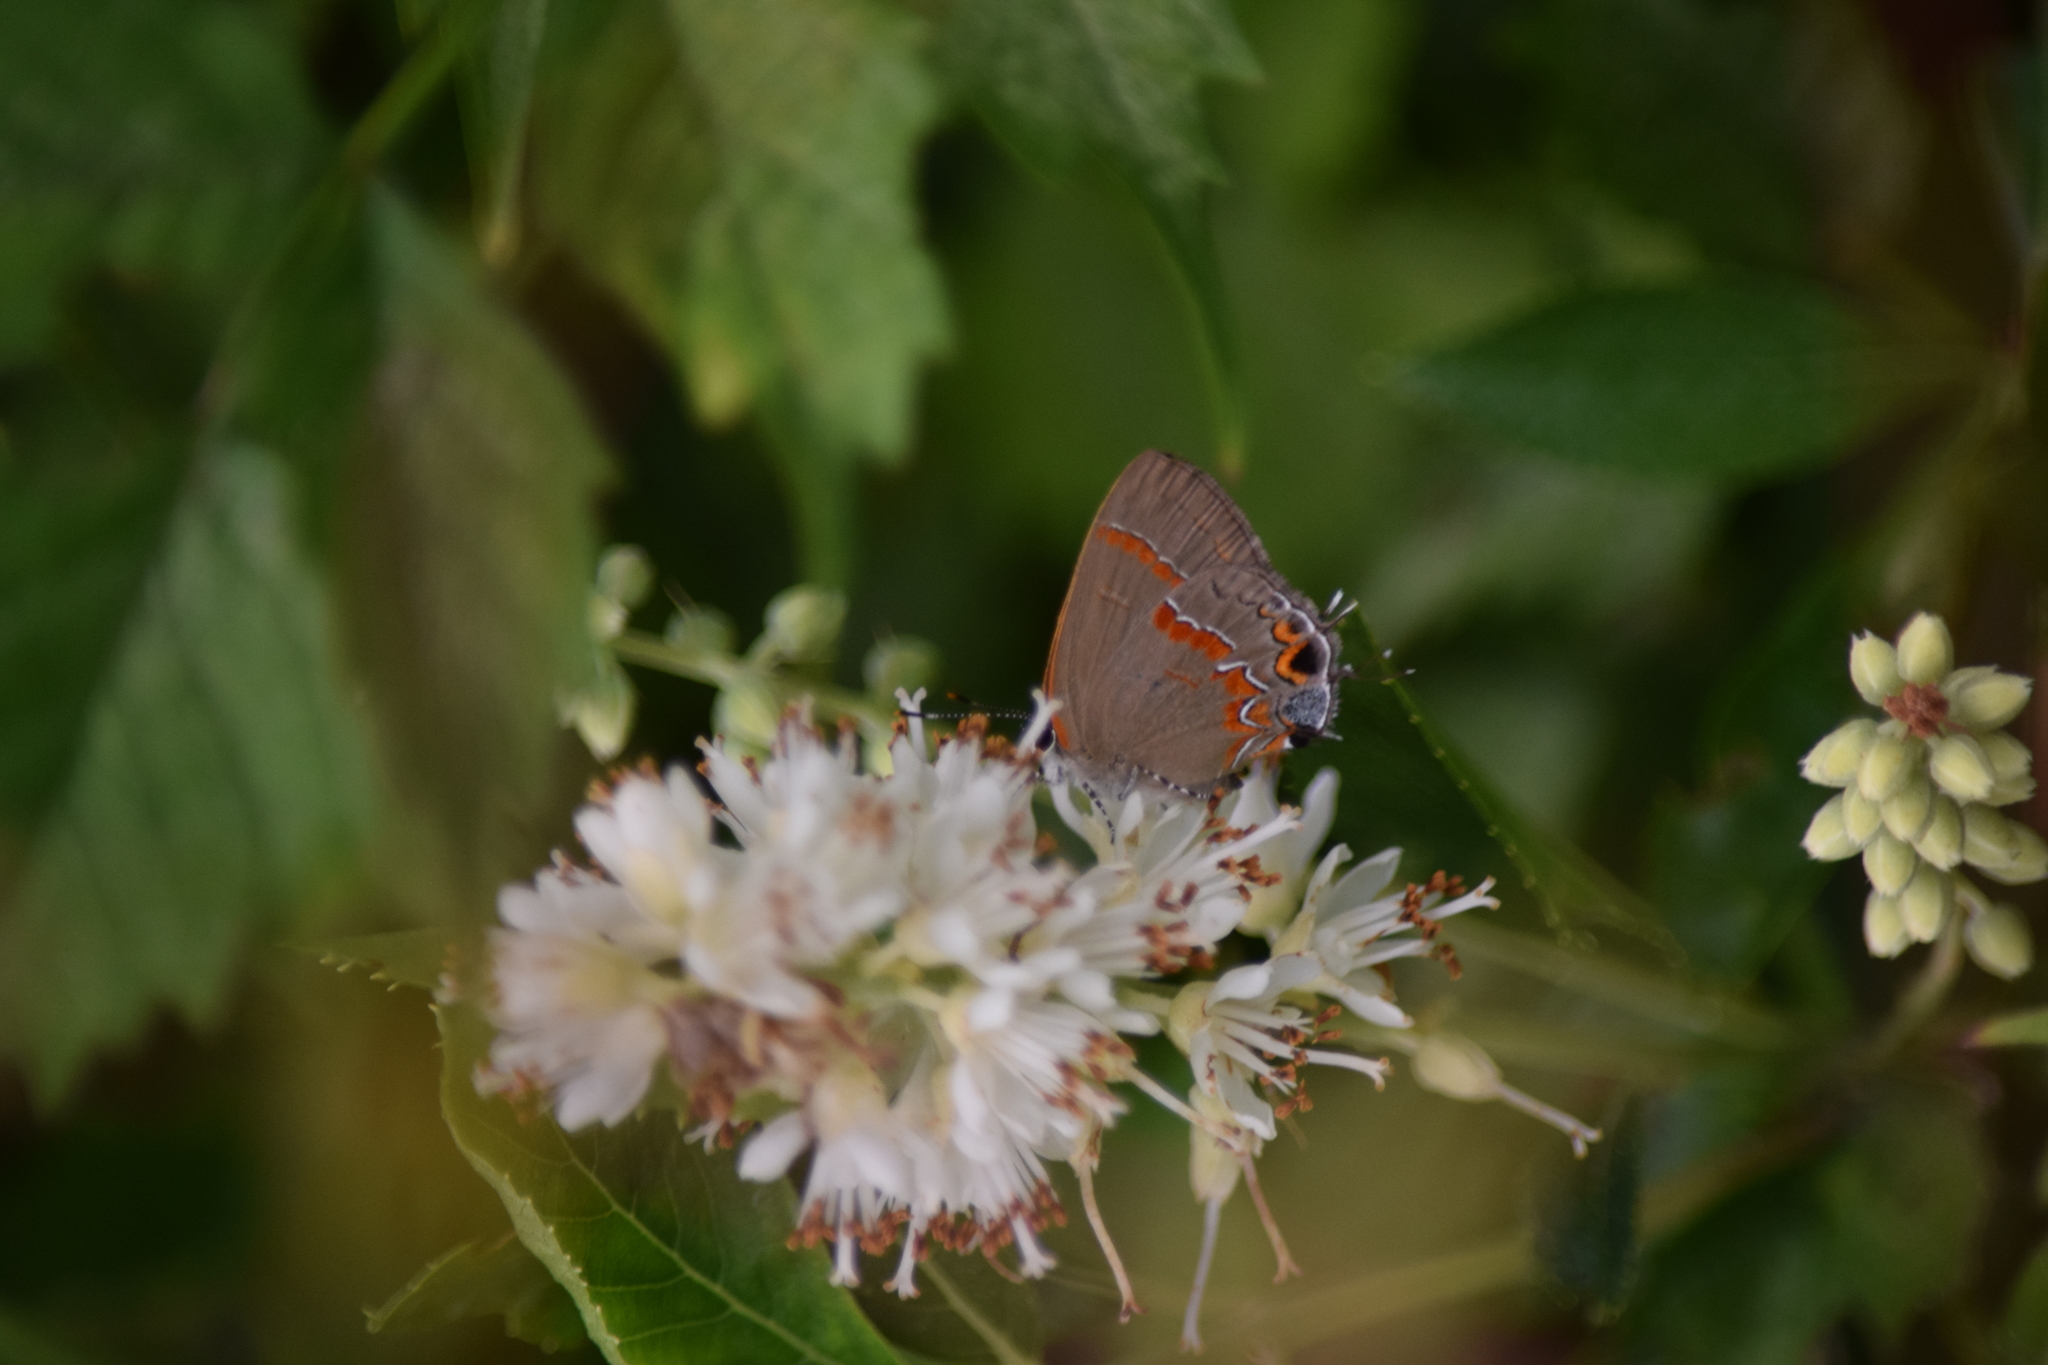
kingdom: Animalia
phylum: Arthropoda
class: Insecta
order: Lepidoptera
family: Lycaenidae
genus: Calycopis
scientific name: Calycopis cecrops
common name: Red-banded hairstreak
